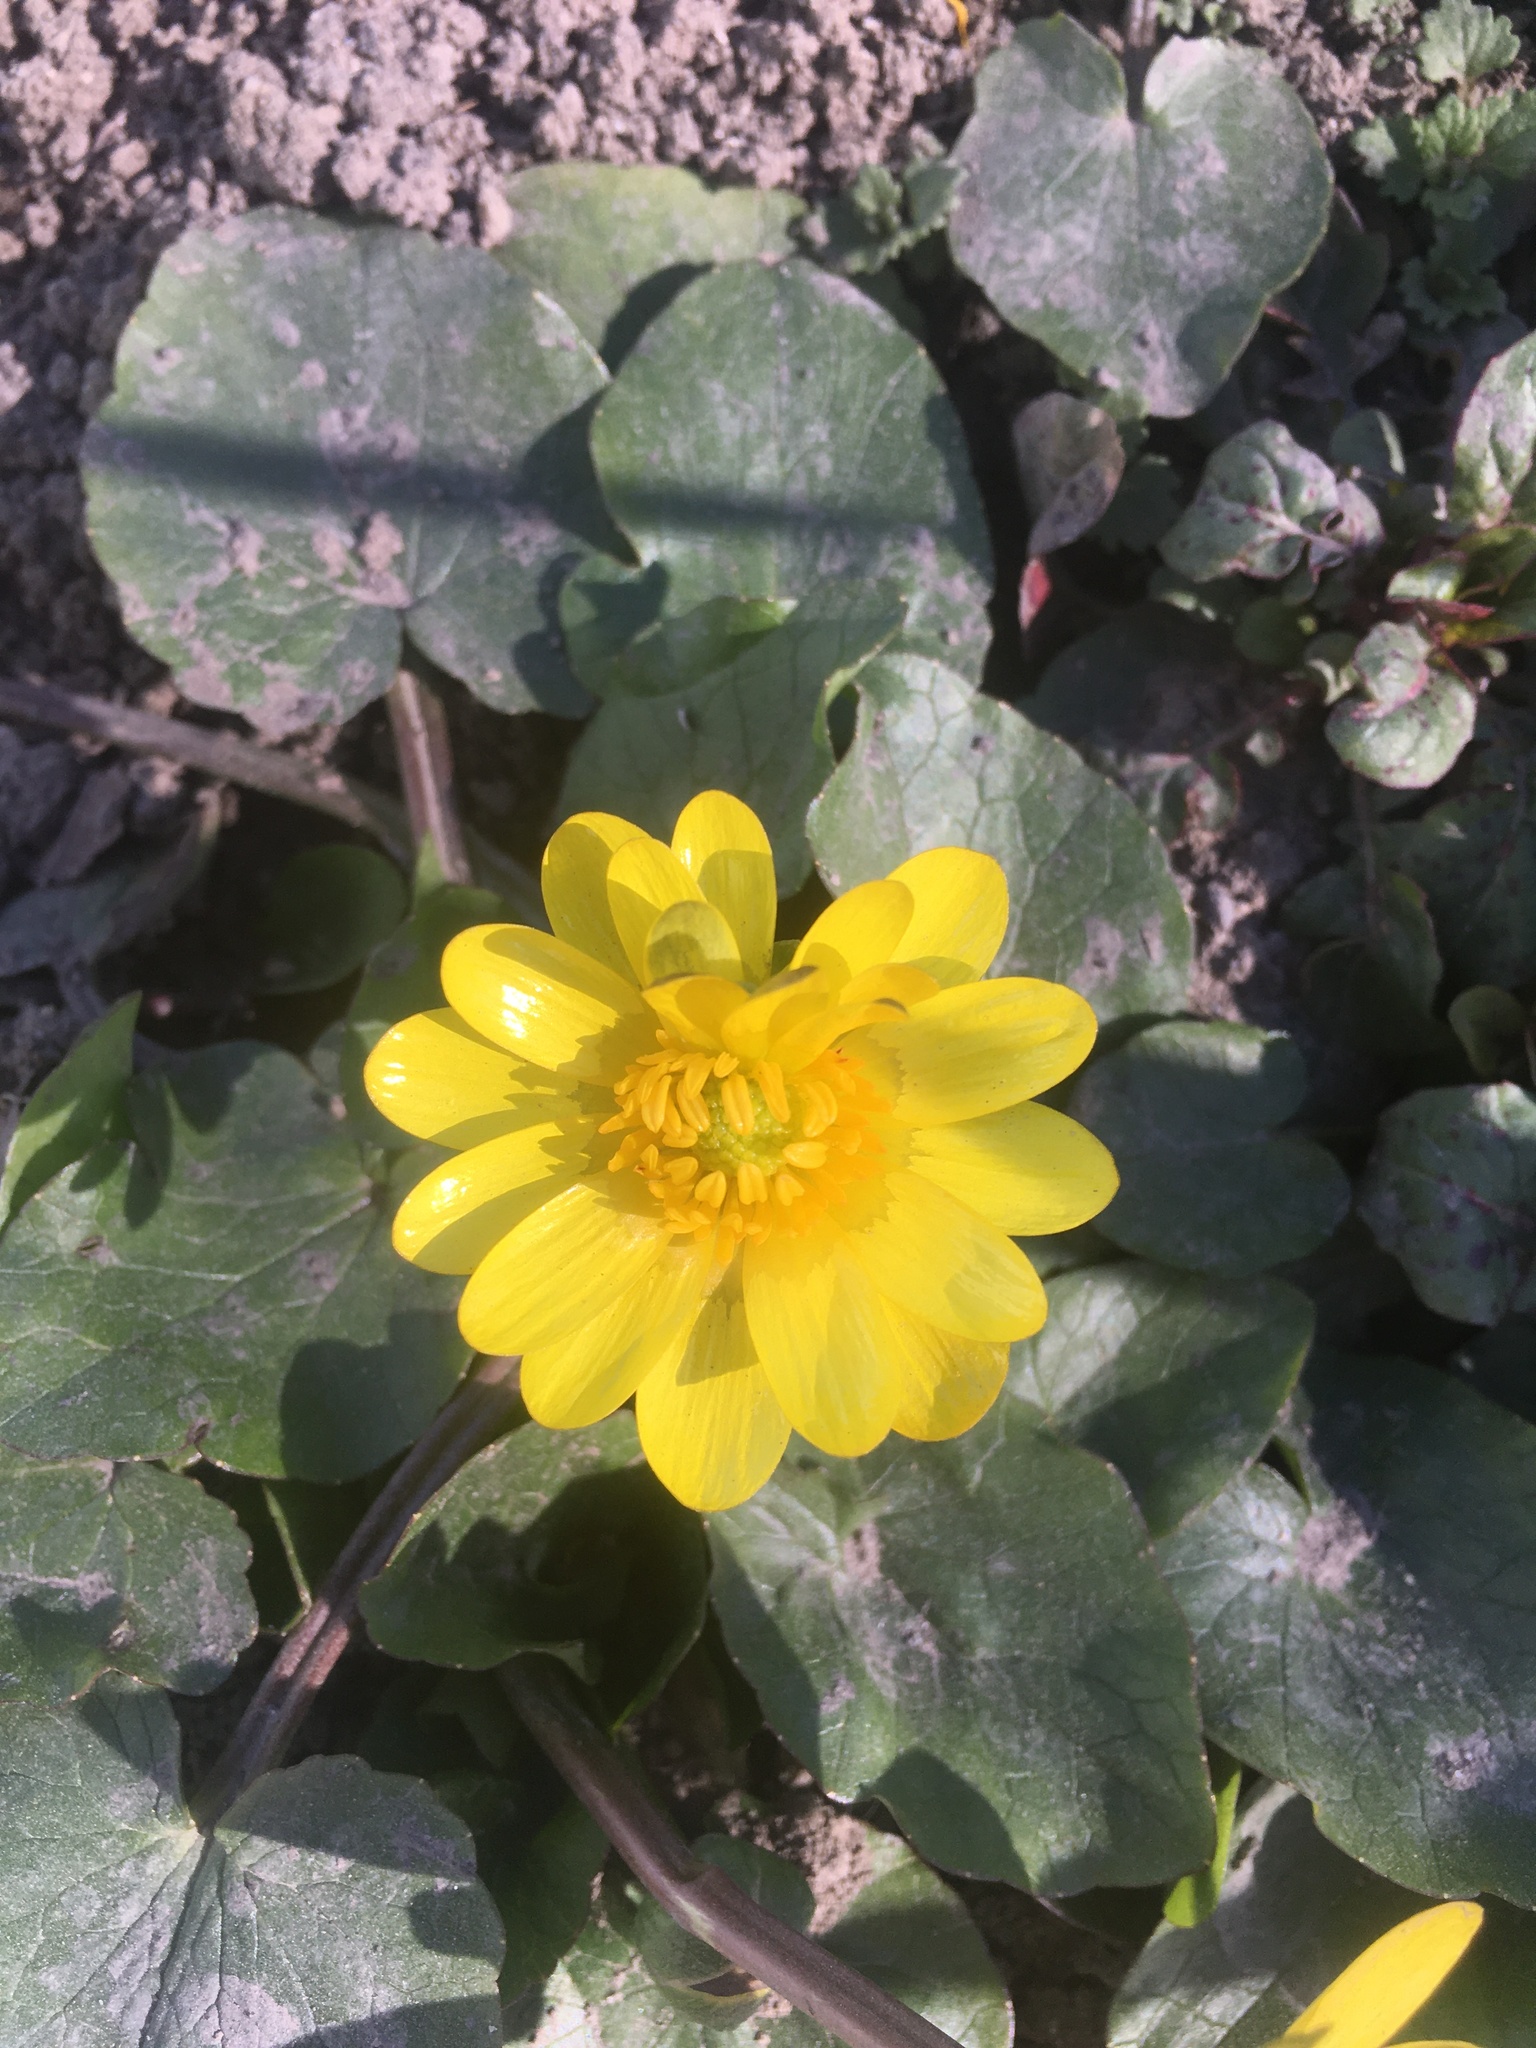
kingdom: Plantae
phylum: Tracheophyta
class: Magnoliopsida
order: Ranunculales
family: Ranunculaceae
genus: Ficaria
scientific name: Ficaria verna
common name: Lesser celandine
